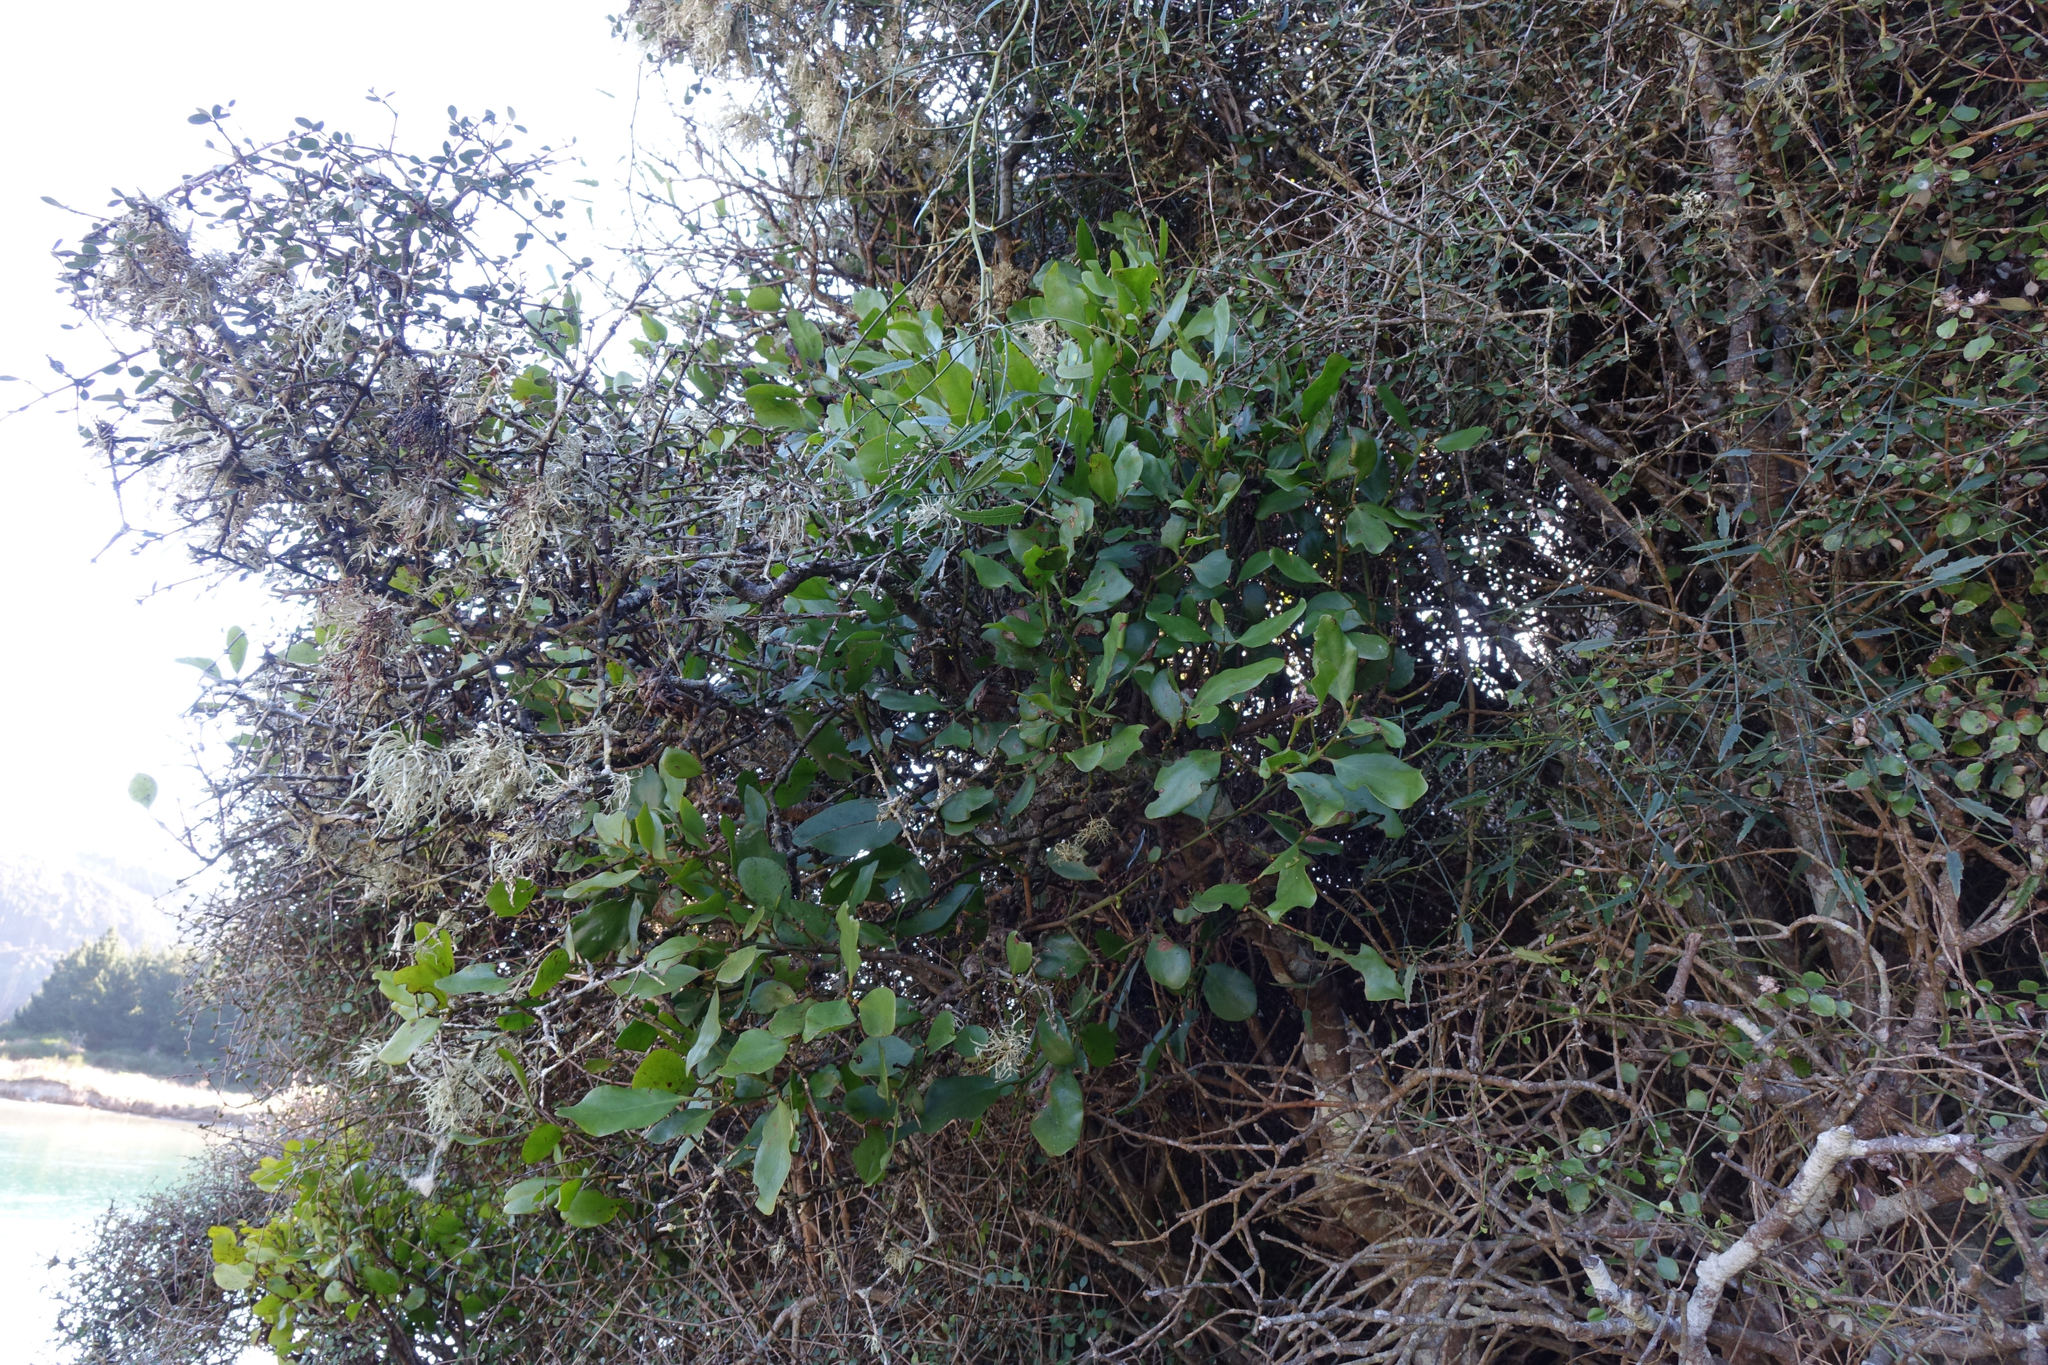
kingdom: Plantae
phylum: Tracheophyta
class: Magnoliopsida
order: Santalales
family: Loranthaceae
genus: Ileostylus
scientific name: Ileostylus micranthus
